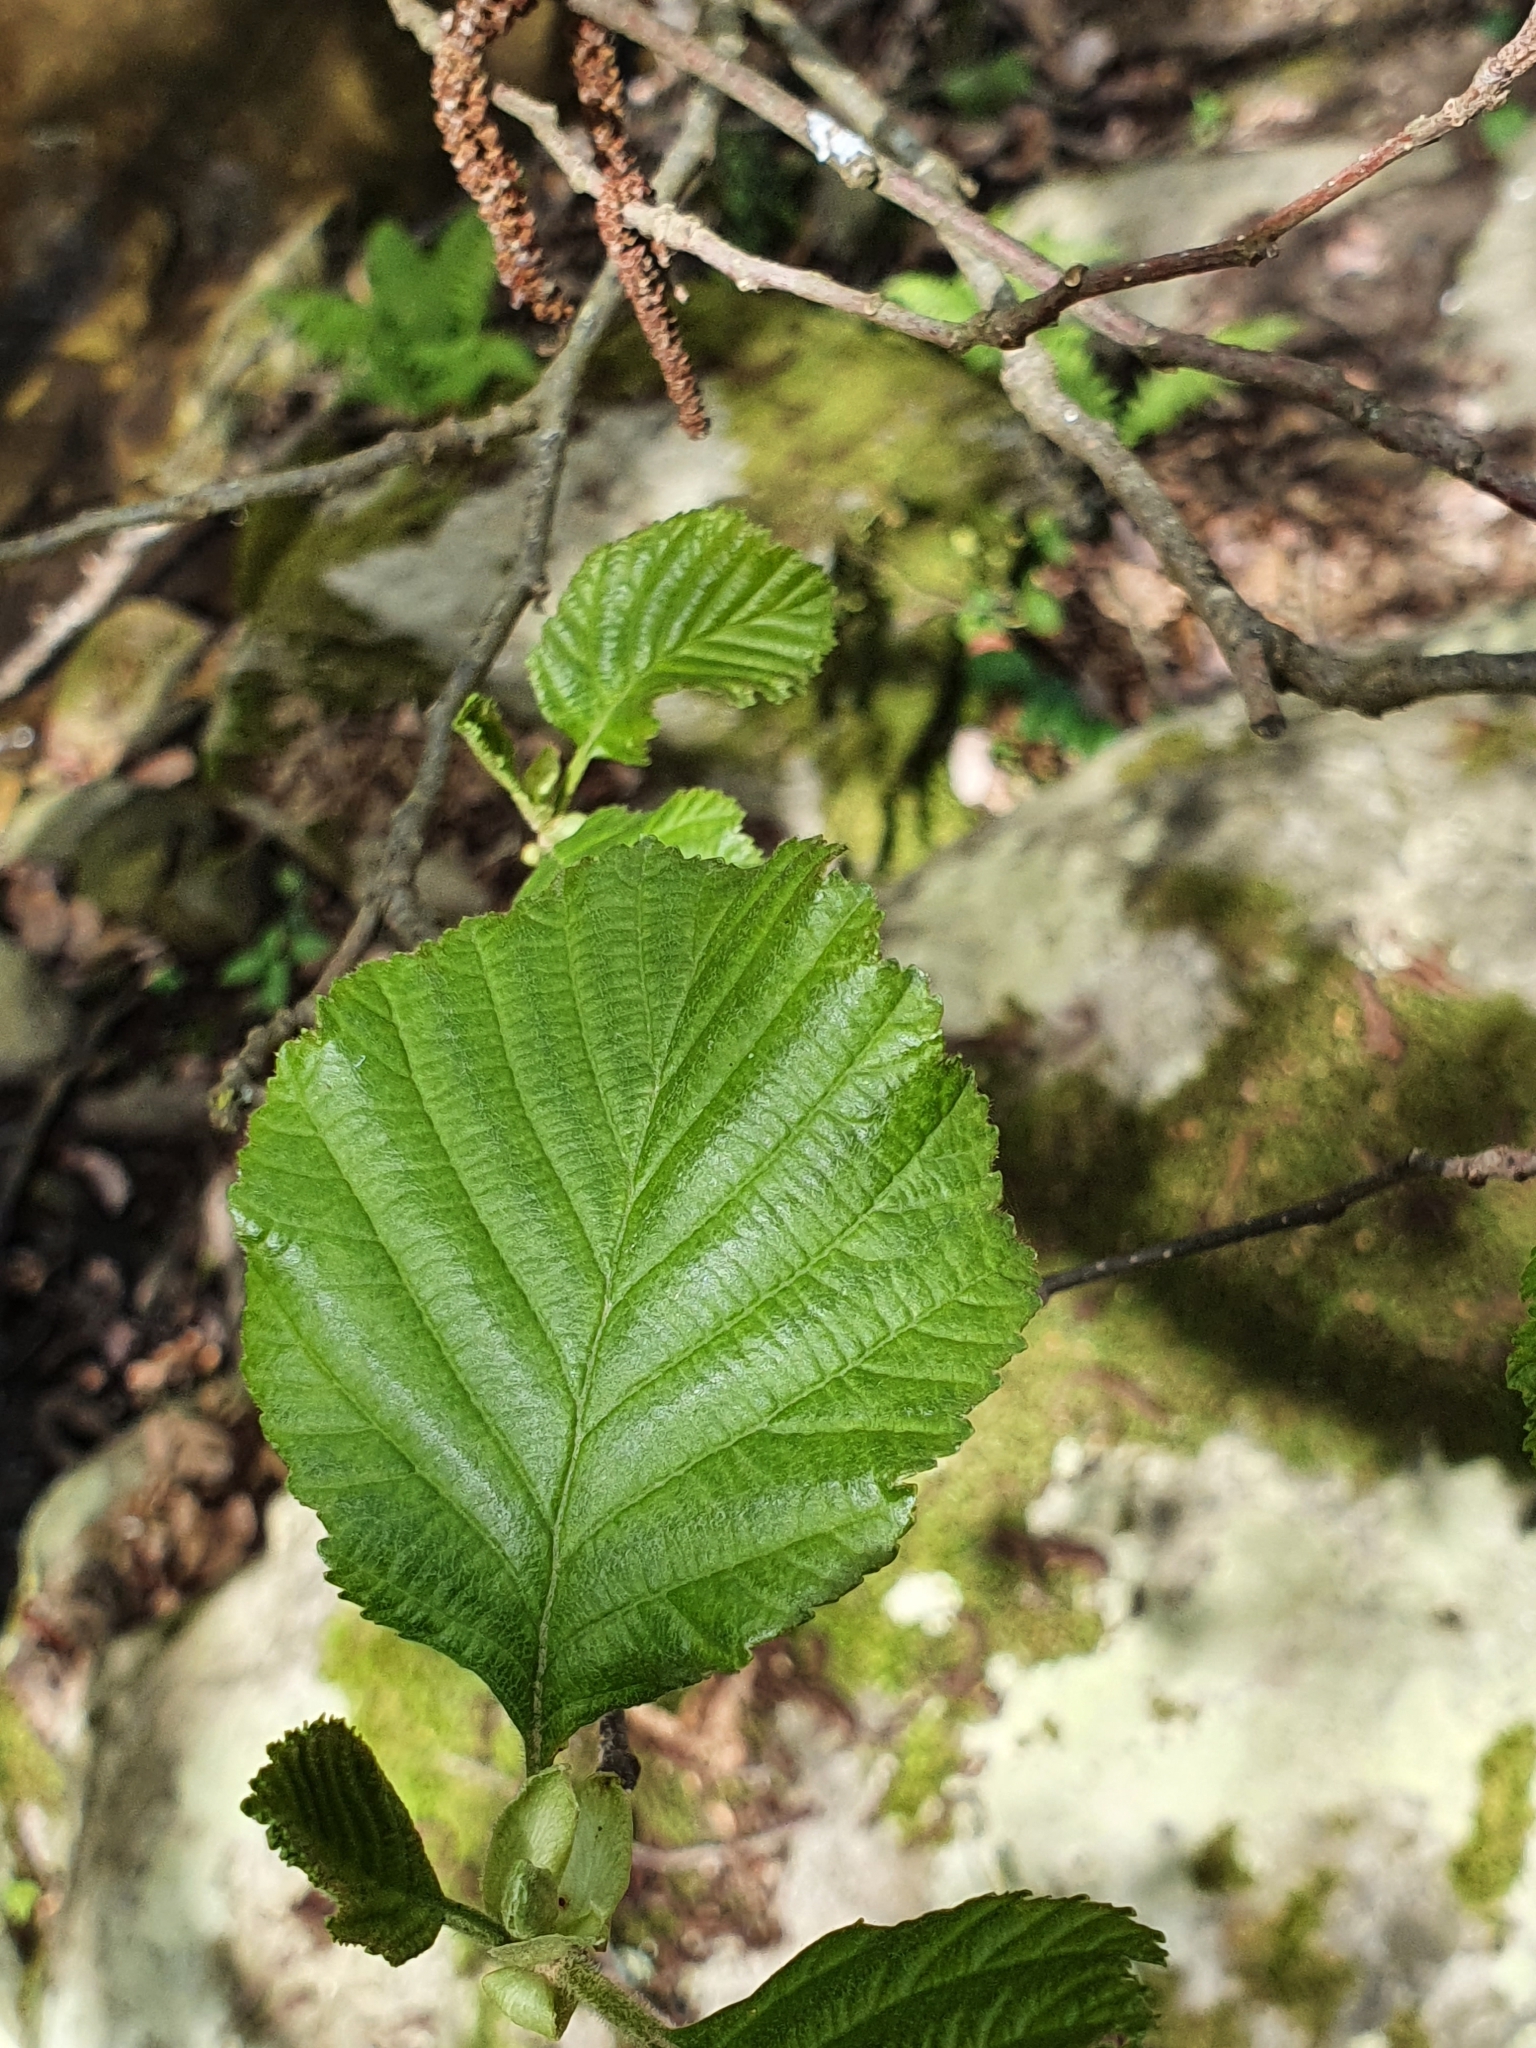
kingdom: Plantae
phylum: Tracheophyta
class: Magnoliopsida
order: Fagales
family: Betulaceae
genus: Alnus
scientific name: Alnus glutinosa
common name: Black alder
